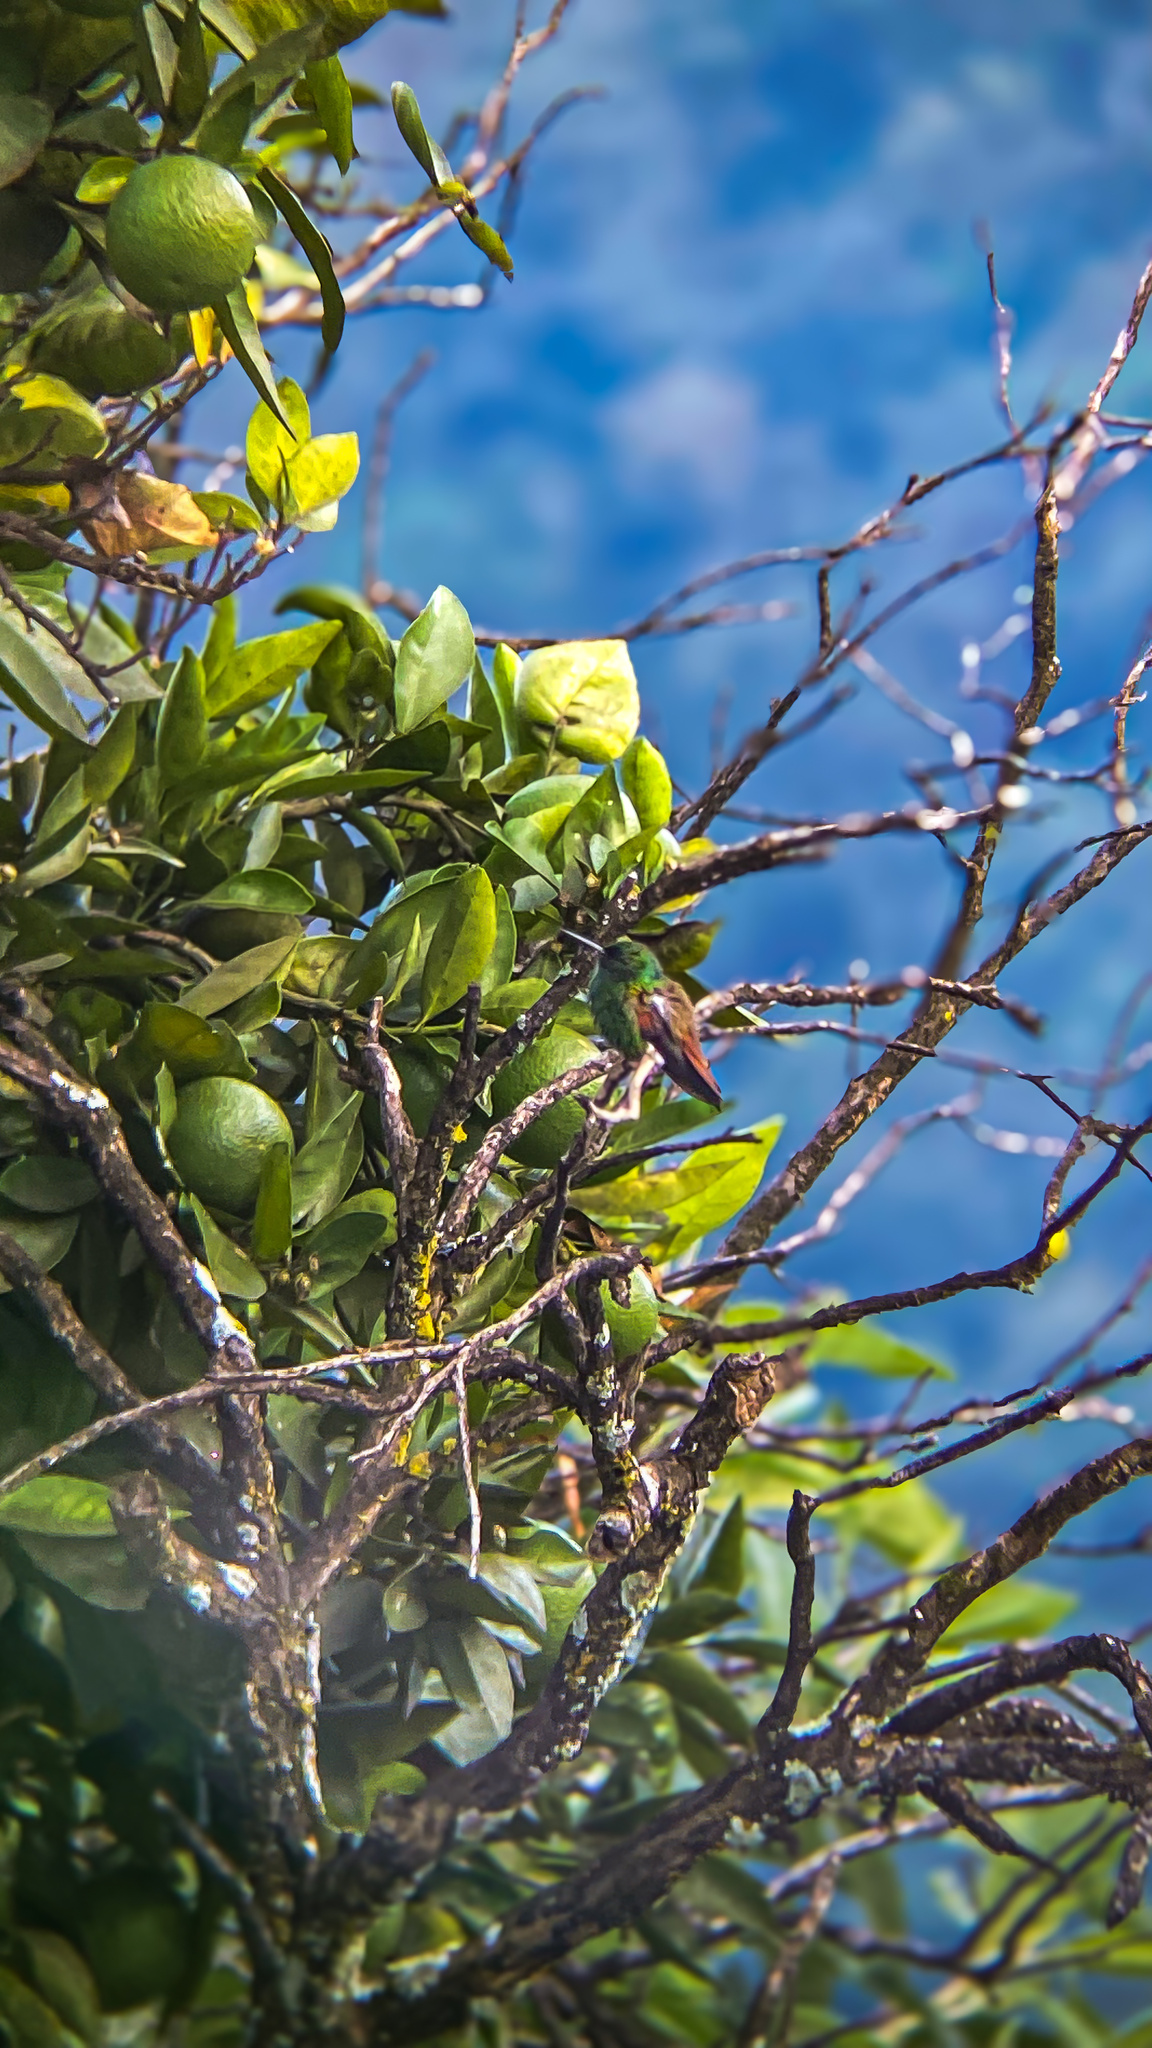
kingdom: Animalia
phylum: Chordata
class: Aves
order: Apodiformes
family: Trochilidae
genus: Saucerottia
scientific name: Saucerottia beryllina
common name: Berylline hummingbird
